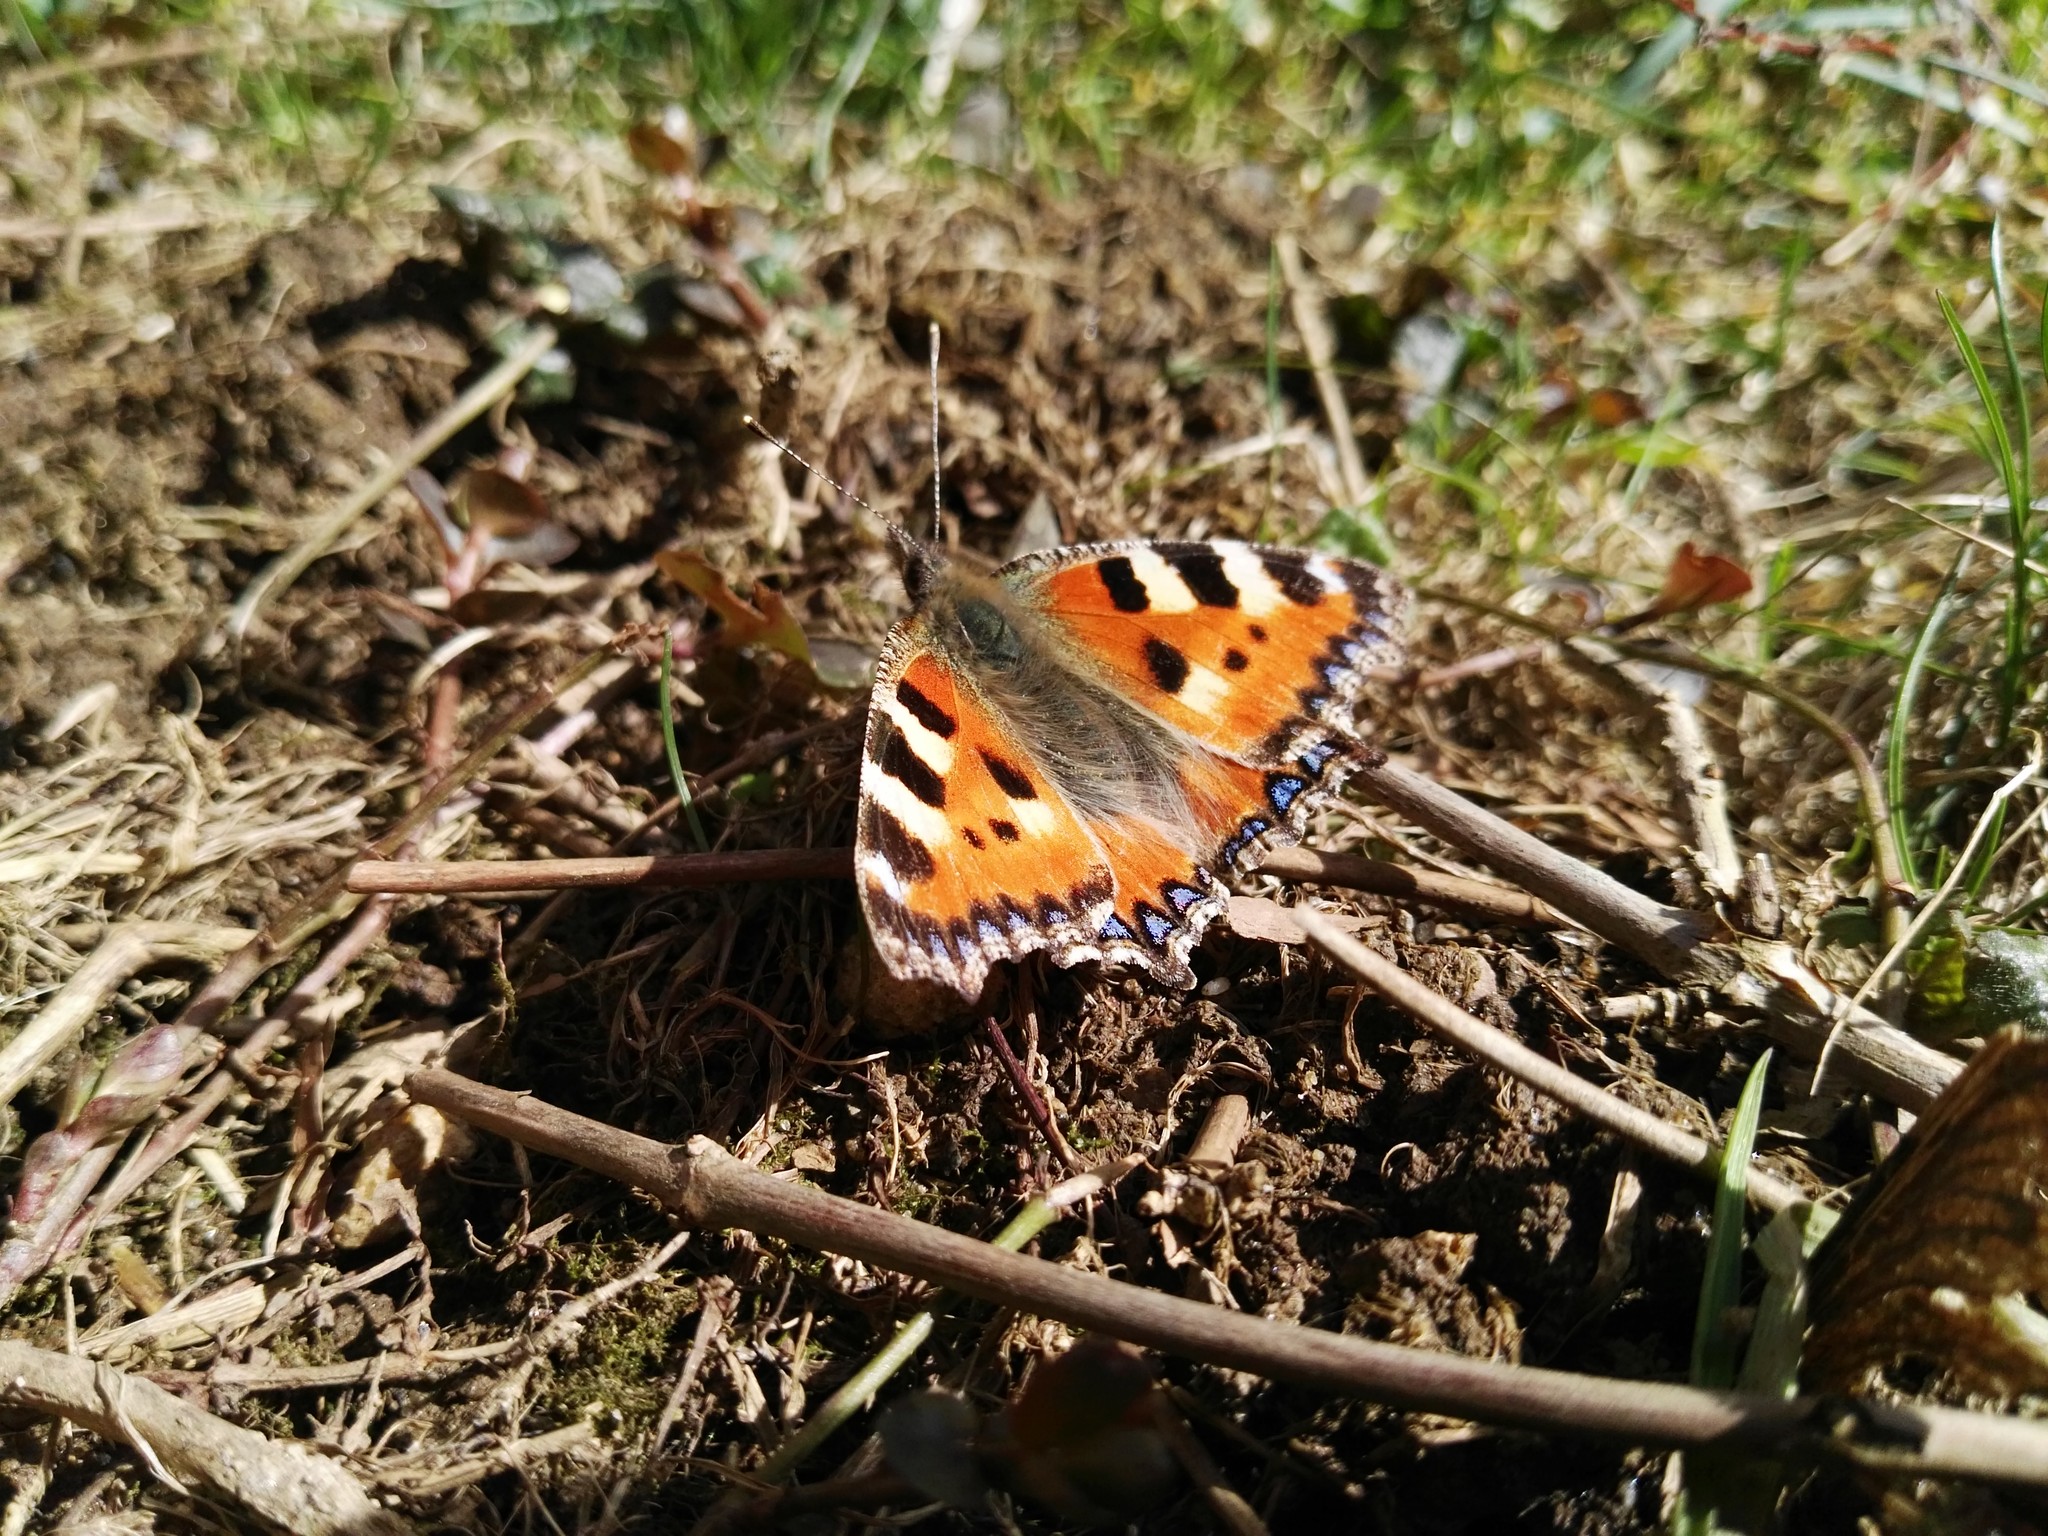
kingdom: Animalia
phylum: Arthropoda
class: Insecta
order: Lepidoptera
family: Nymphalidae
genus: Aglais
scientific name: Aglais urticae
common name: Small tortoiseshell
